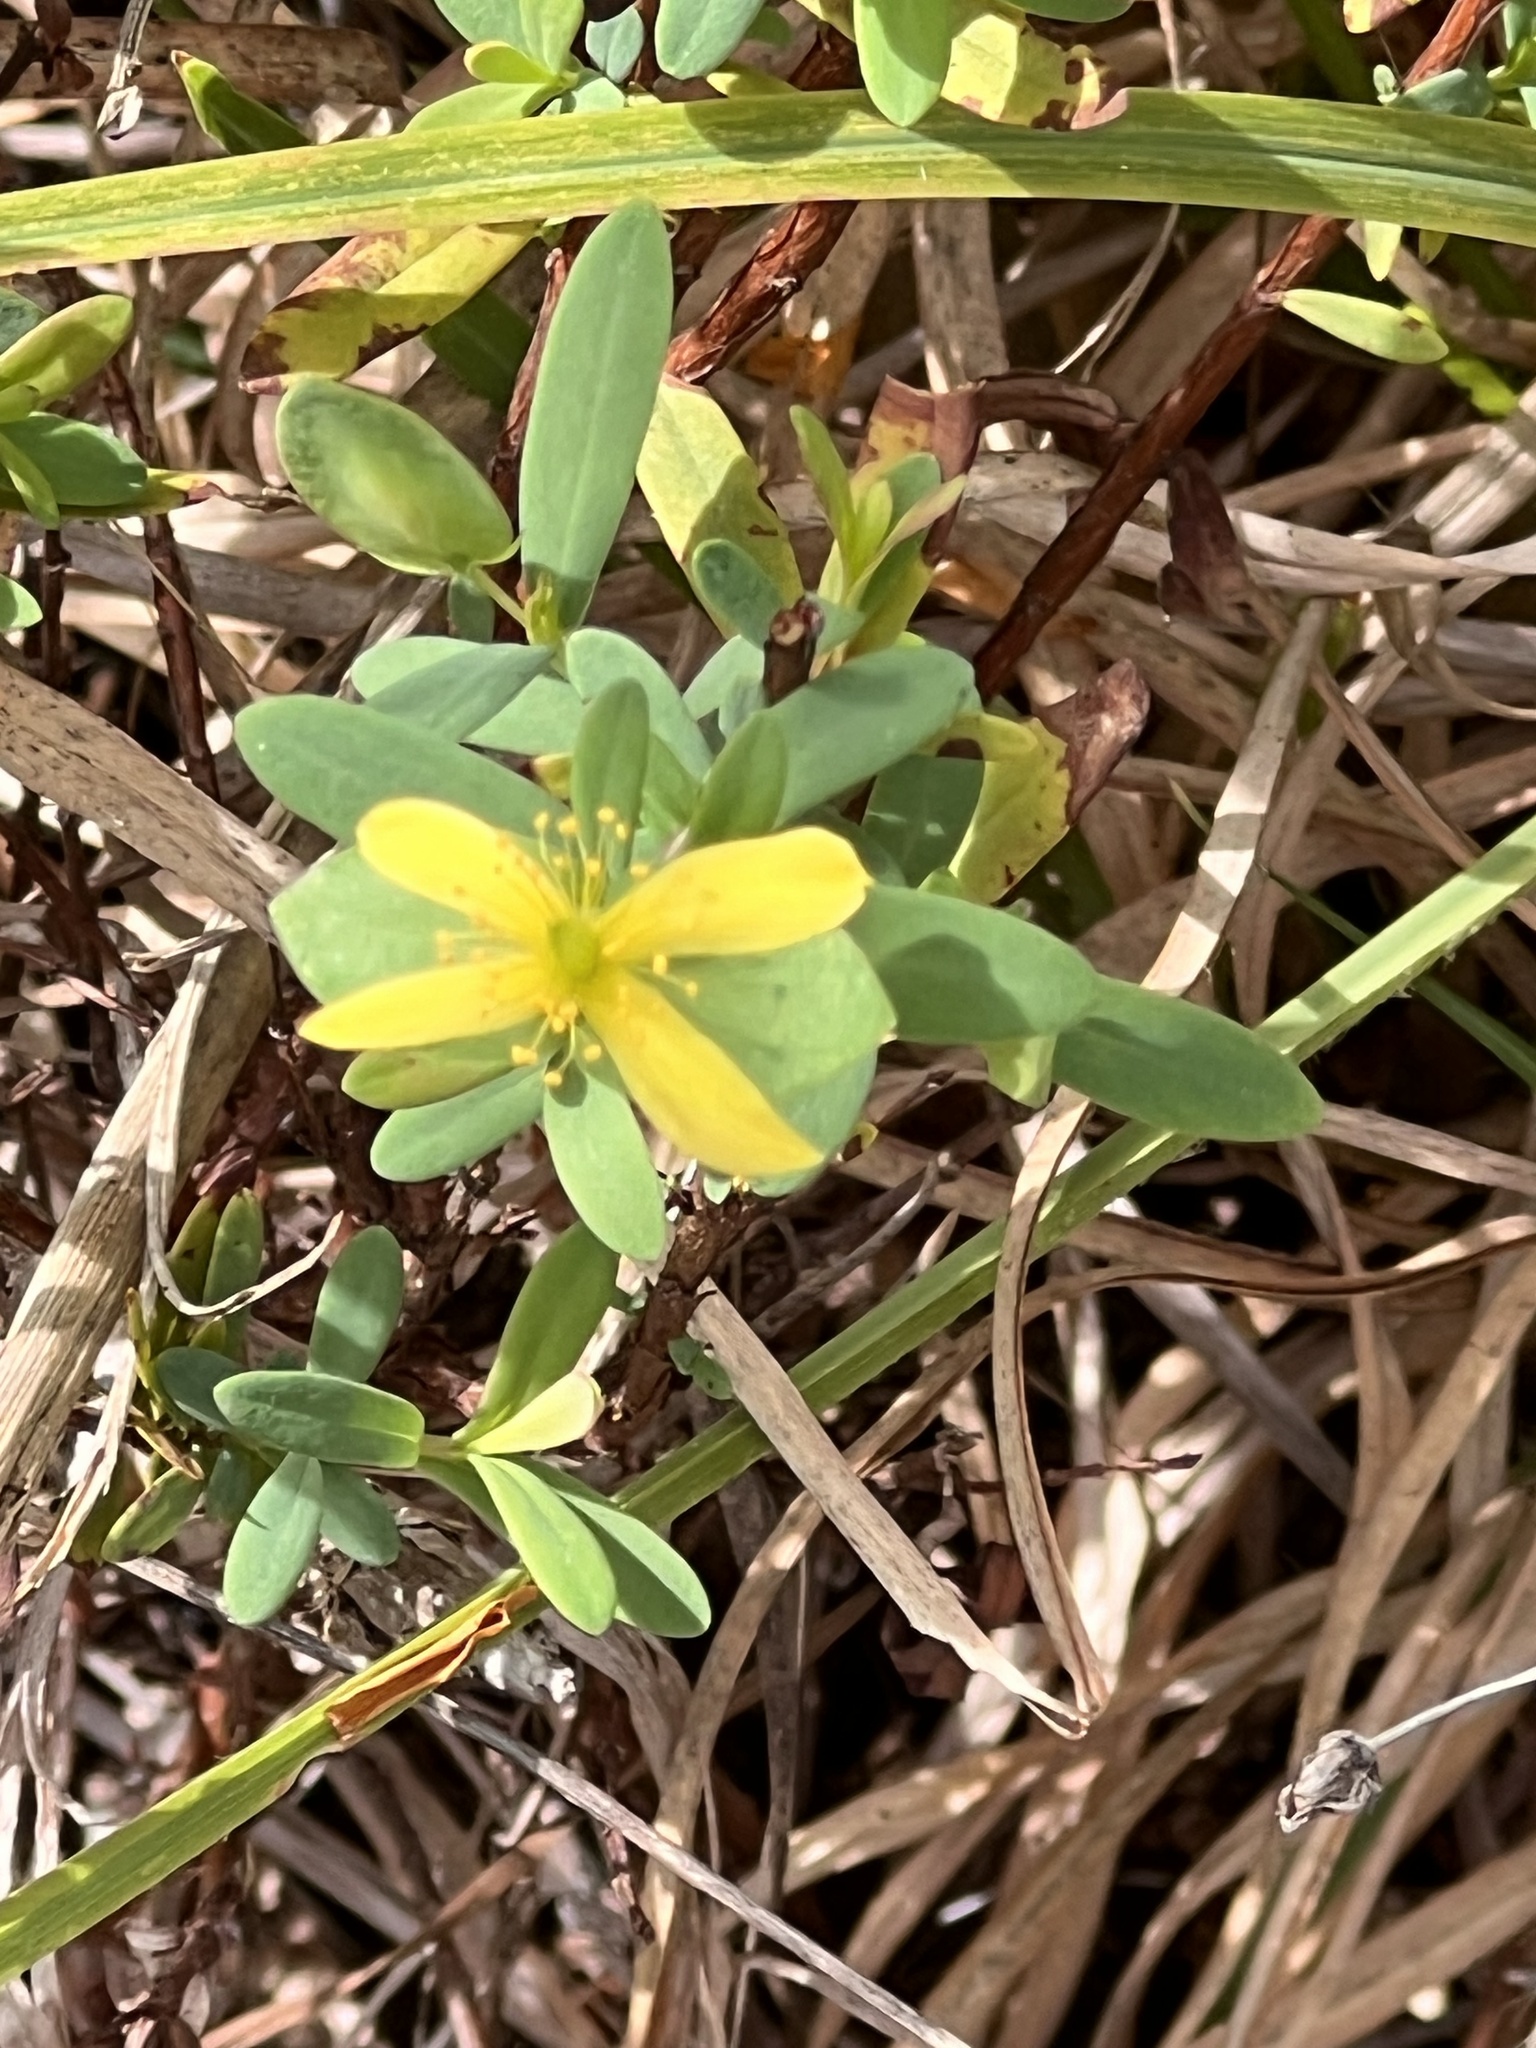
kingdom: Plantae
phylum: Tracheophyta
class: Magnoliopsida
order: Malpighiales
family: Hypericaceae
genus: Hypericum
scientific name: Hypericum hypericoides
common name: St. andrew's cross
